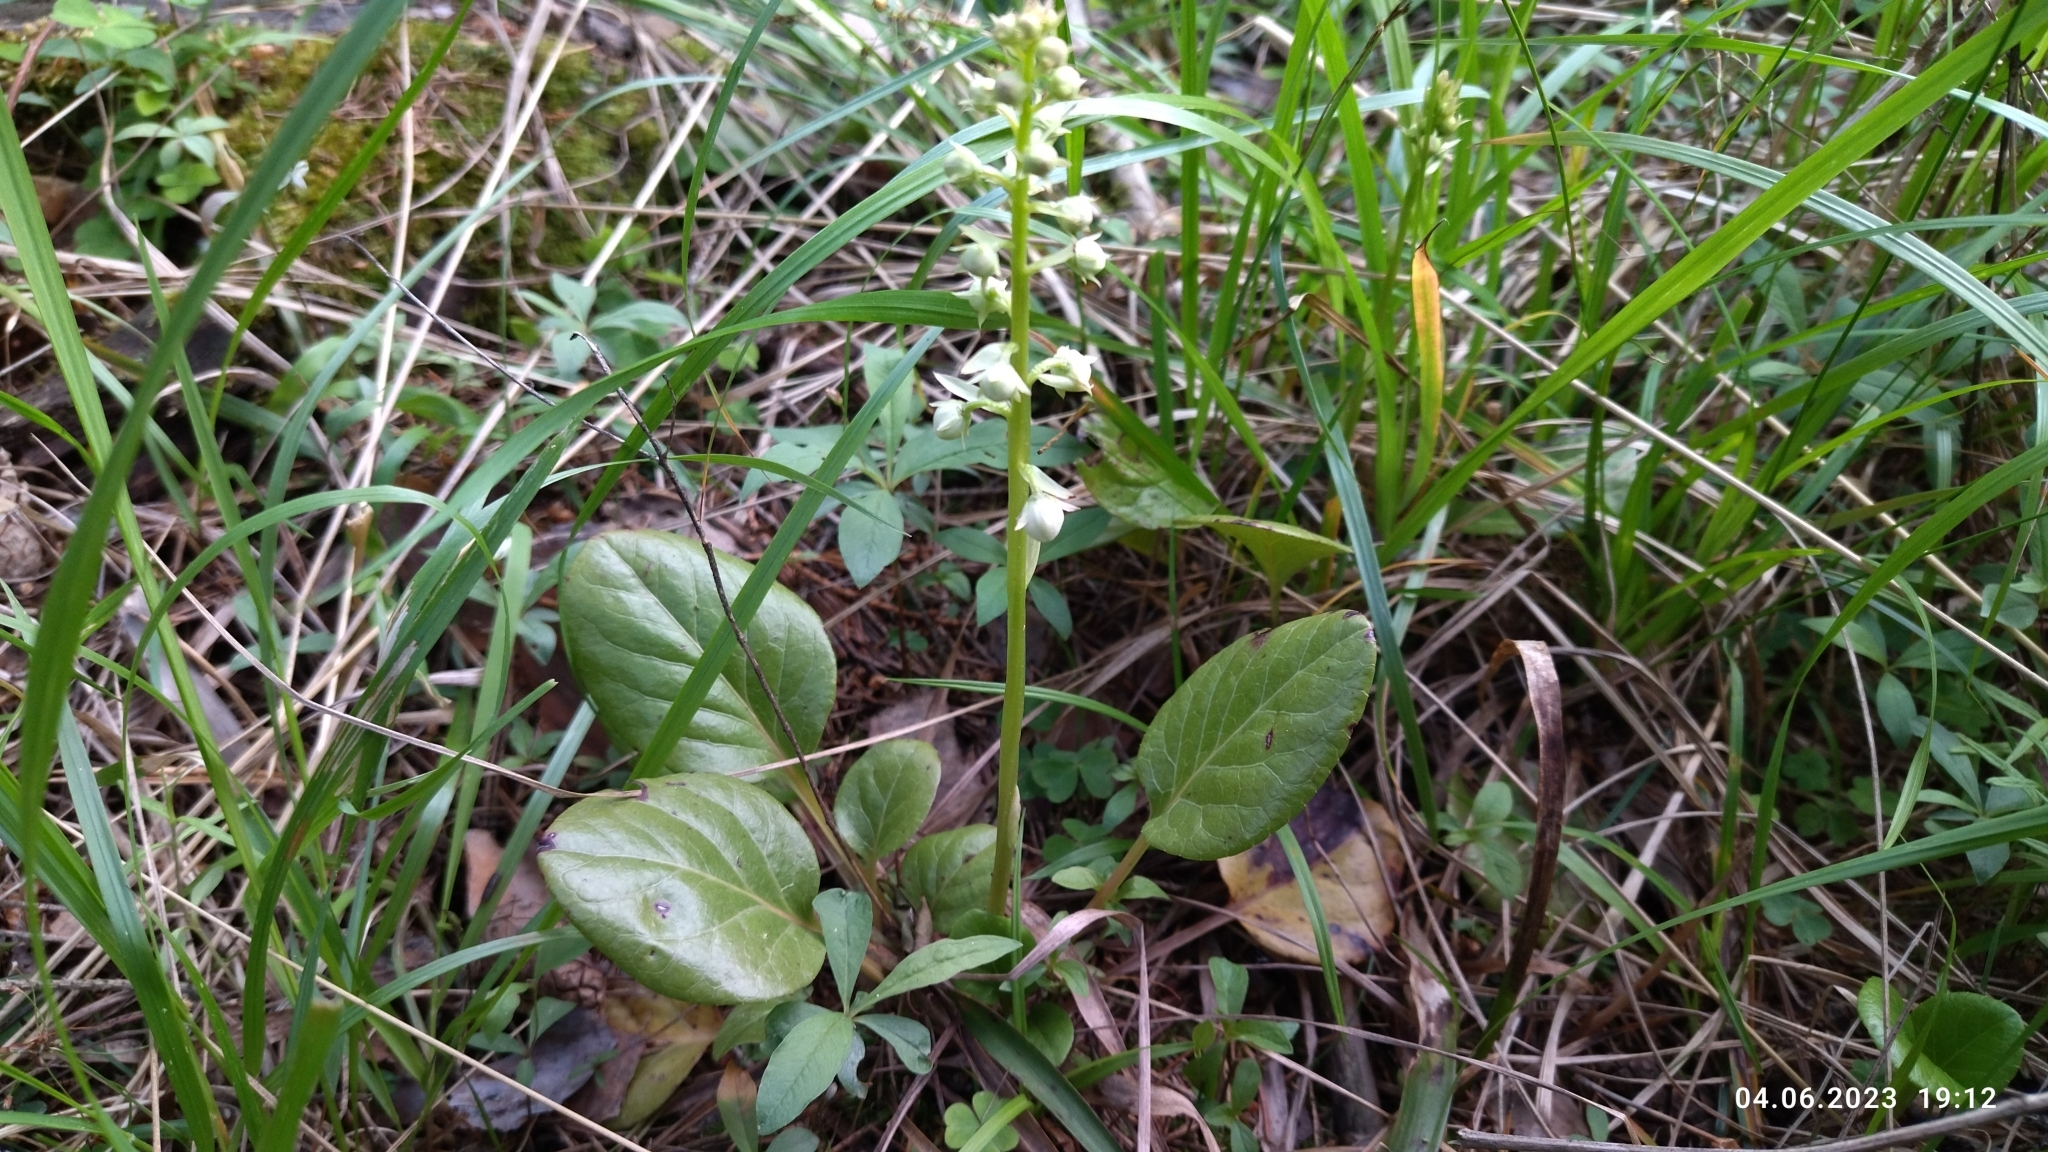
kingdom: Plantae
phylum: Tracheophyta
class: Magnoliopsida
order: Ericales
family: Ericaceae
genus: Pyrola
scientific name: Pyrola rotundifolia
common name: Round-leaved wintergreen
